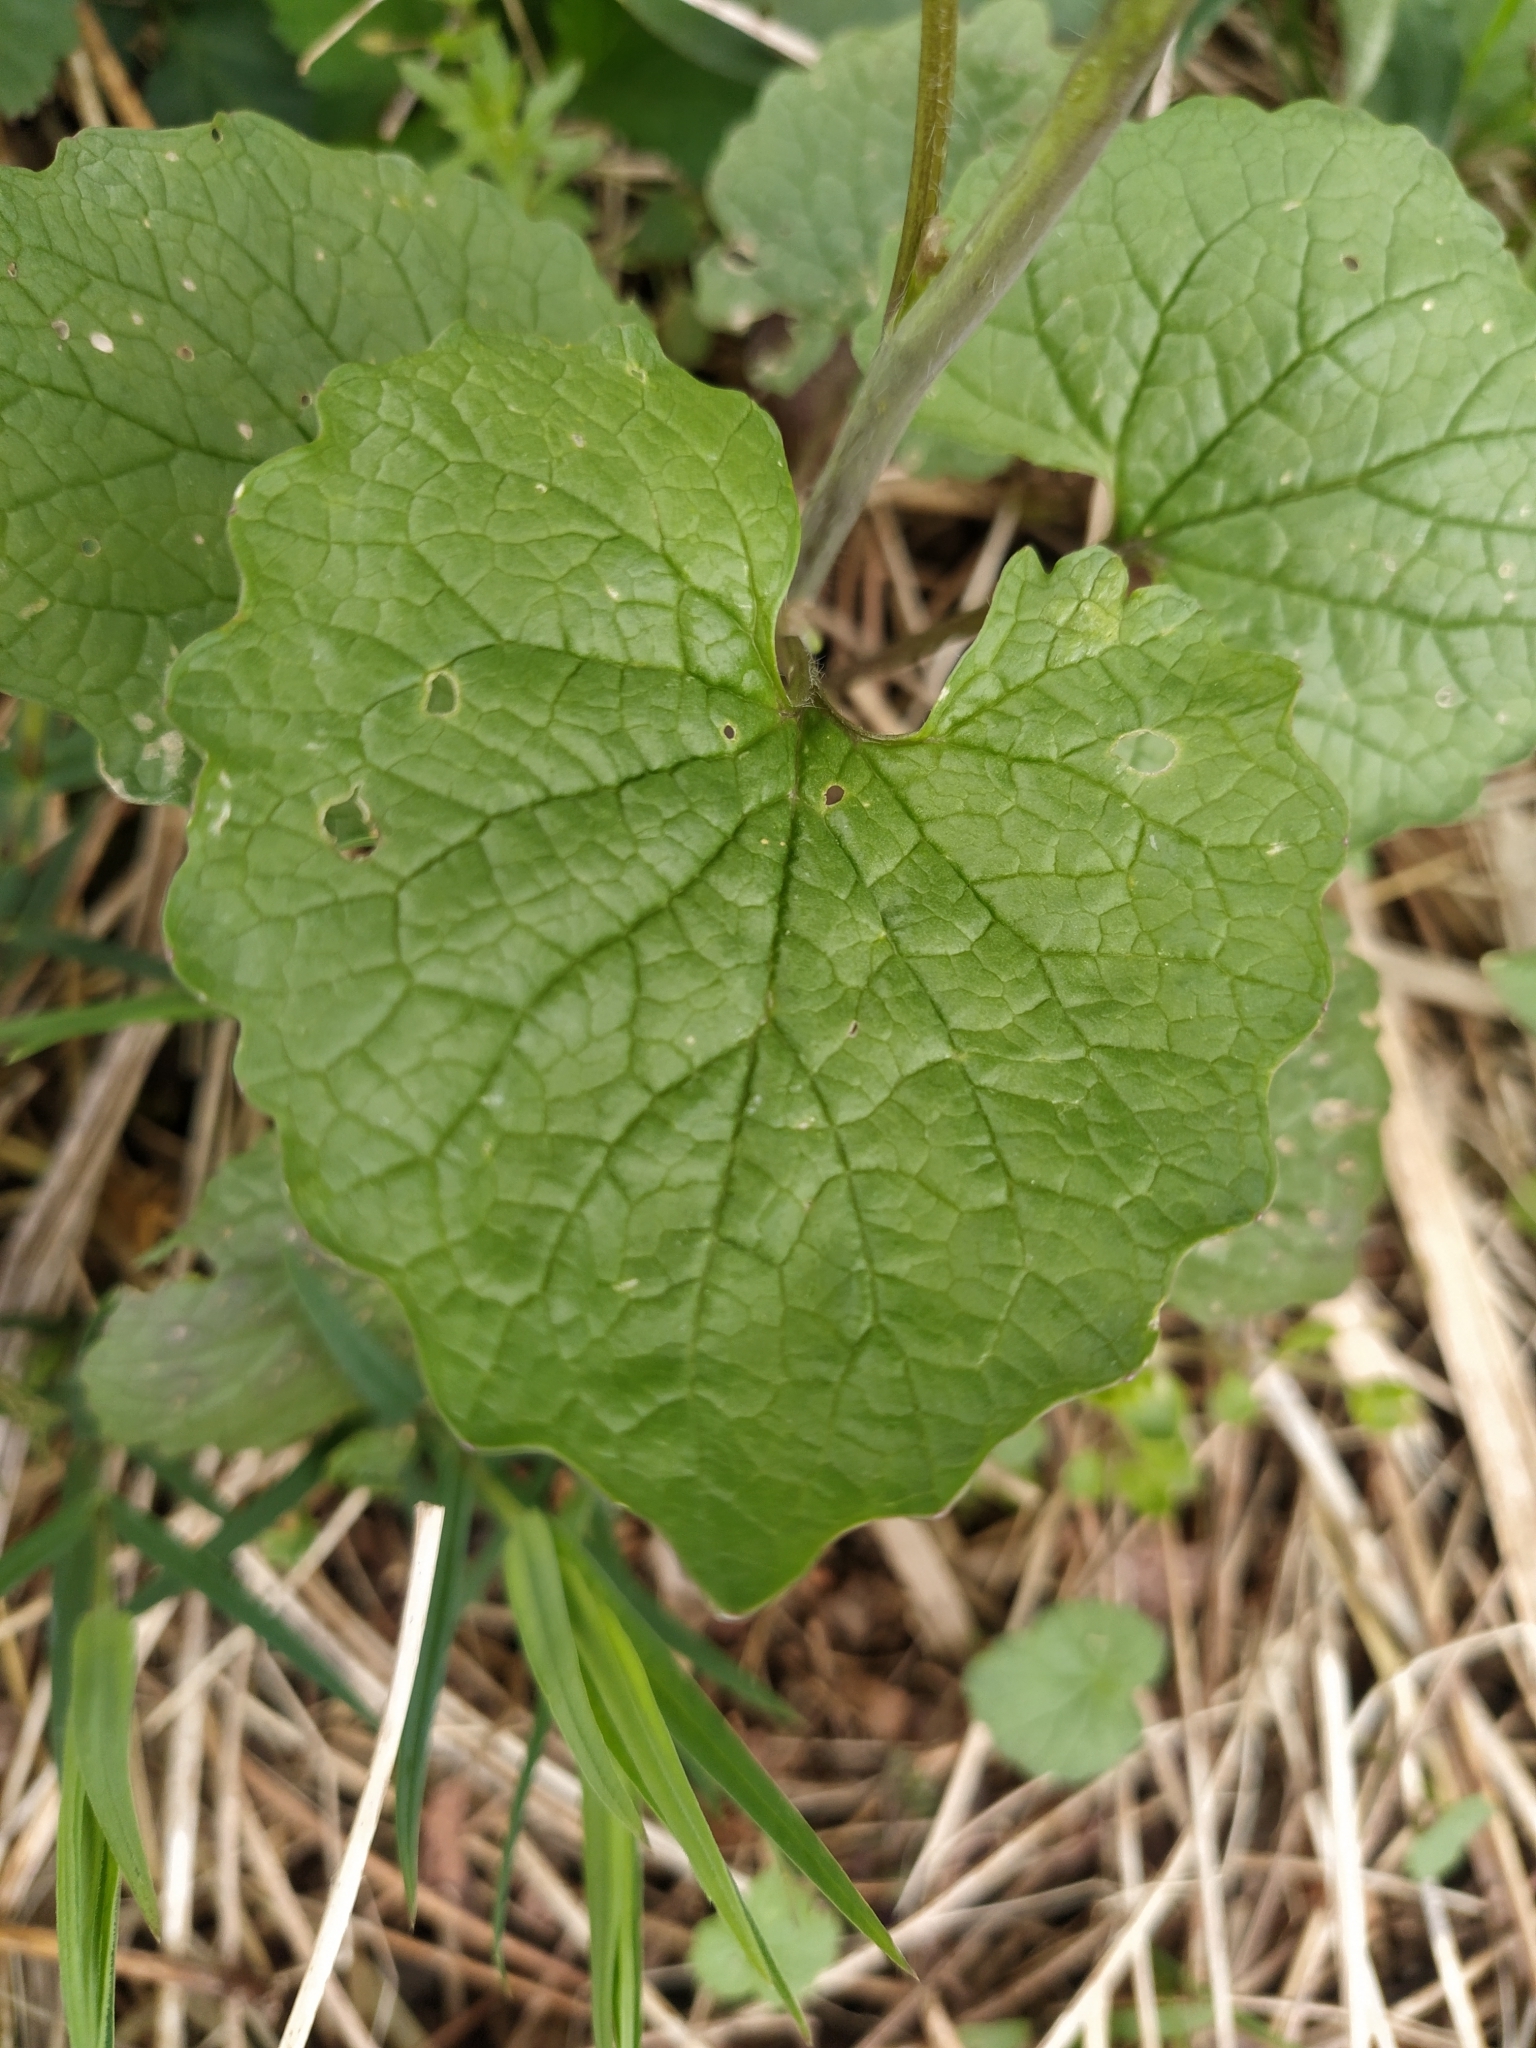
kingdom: Plantae
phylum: Tracheophyta
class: Magnoliopsida
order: Brassicales
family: Brassicaceae
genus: Alliaria
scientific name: Alliaria petiolata
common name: Garlic mustard
